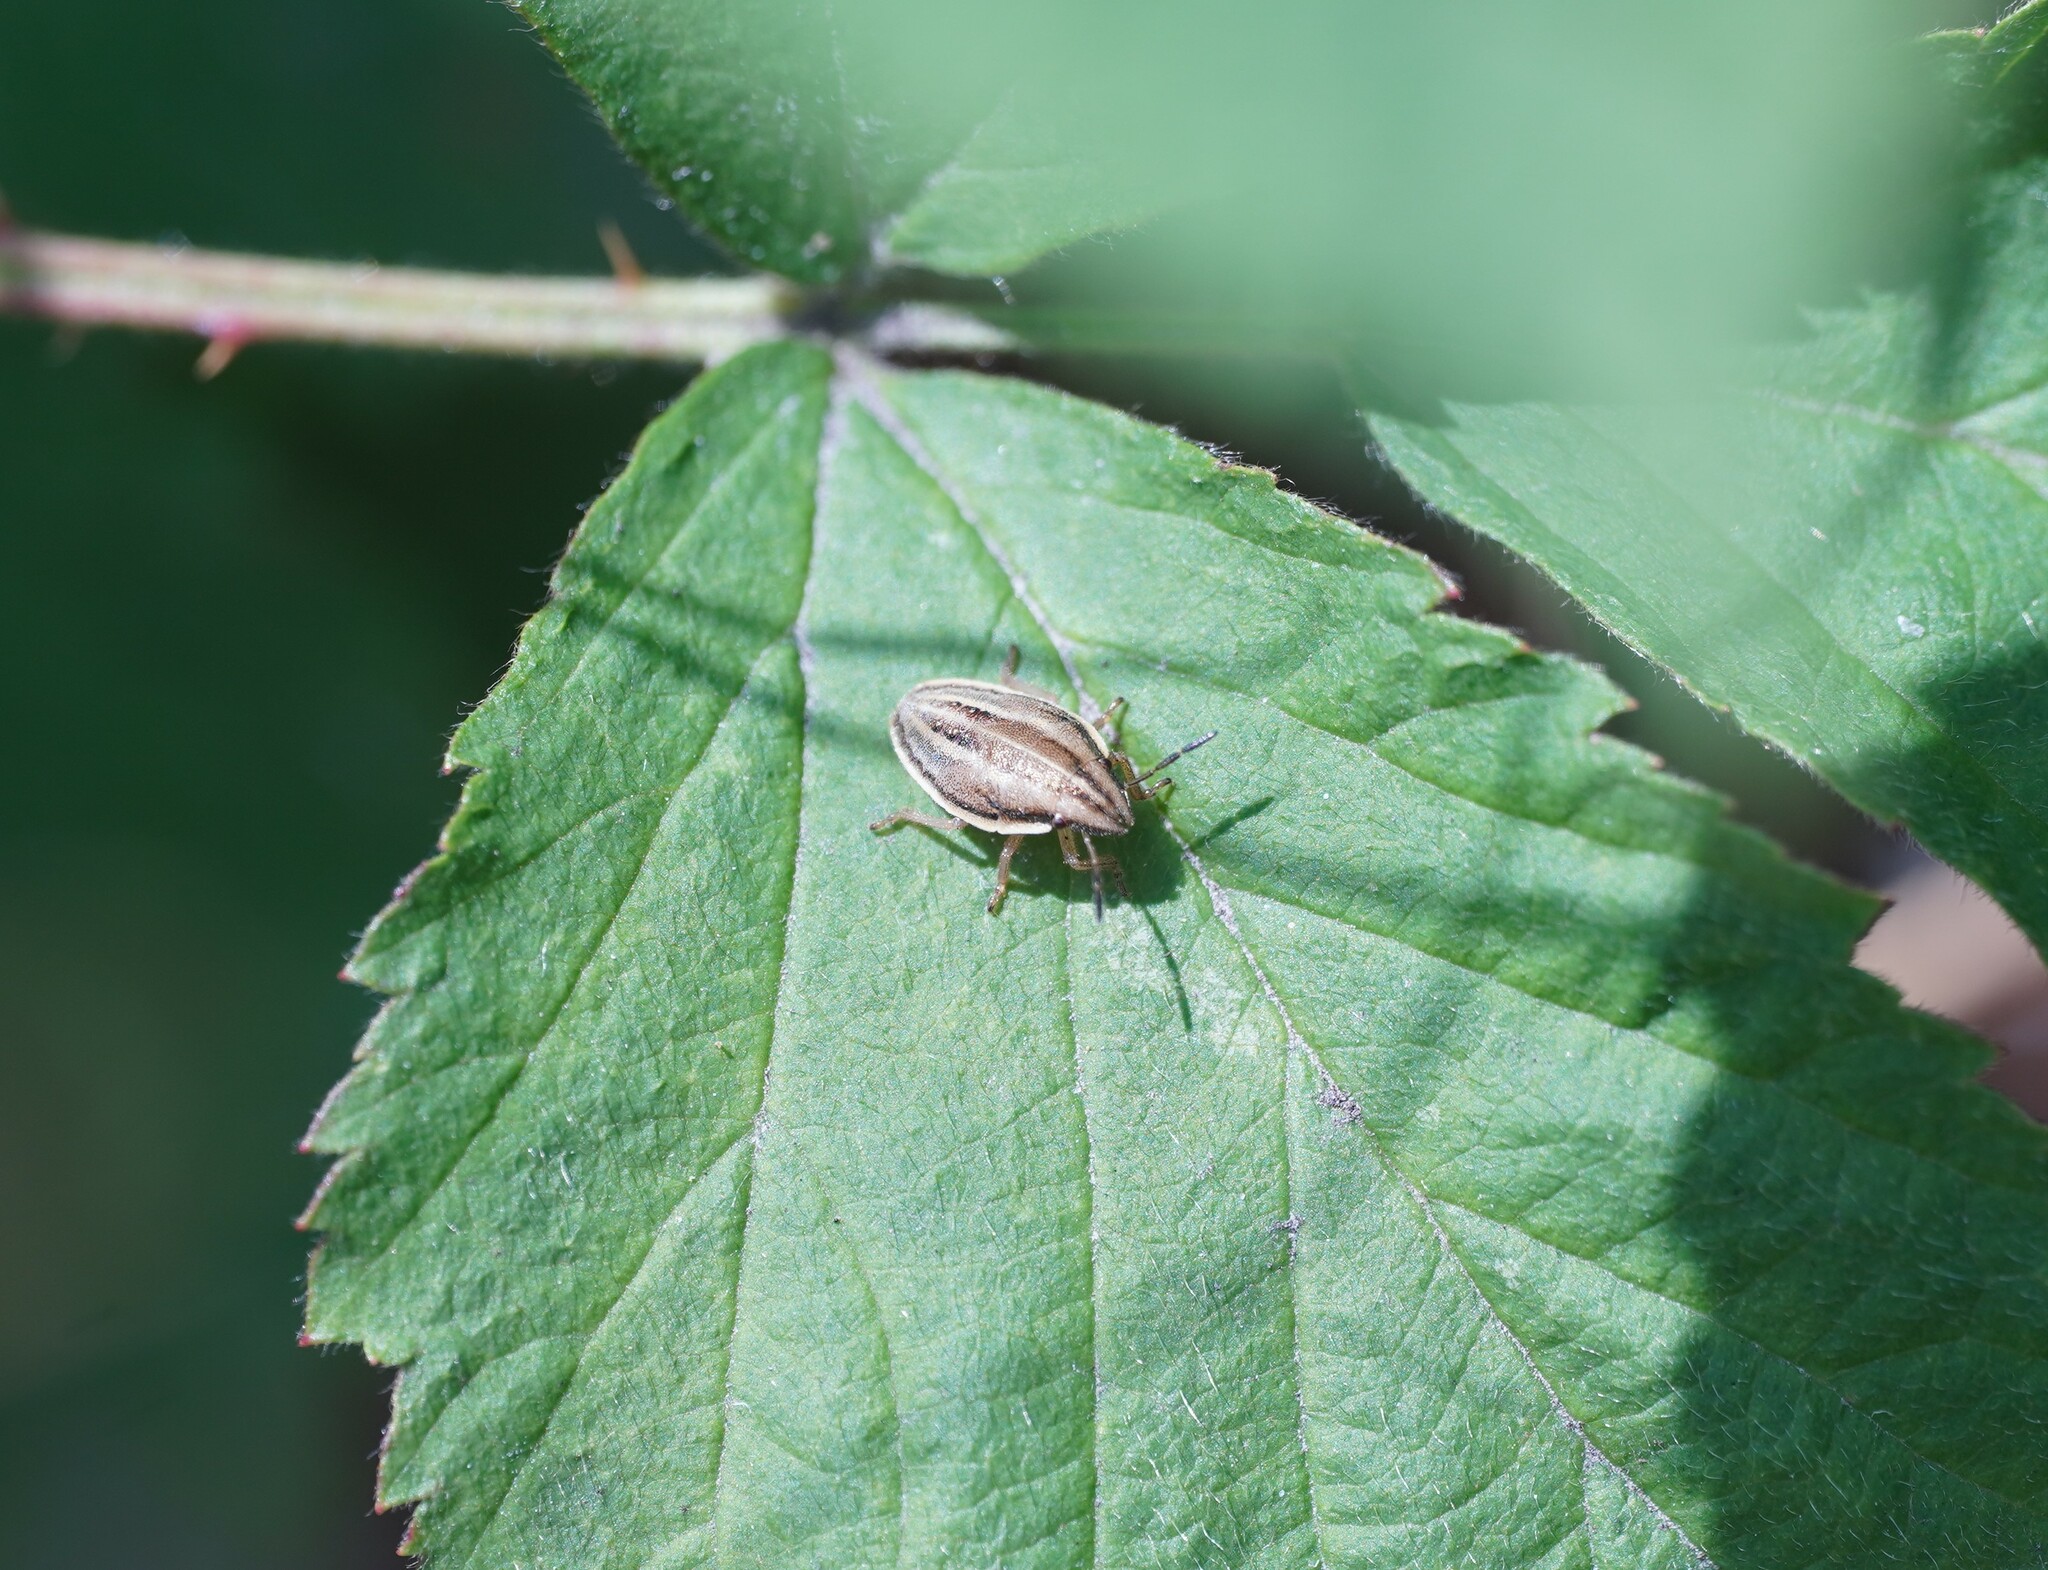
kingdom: Animalia
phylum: Arthropoda
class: Insecta
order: Hemiptera
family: Pentatomidae
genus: Aelia
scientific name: Aelia acuminata
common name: Bishop's mitre
